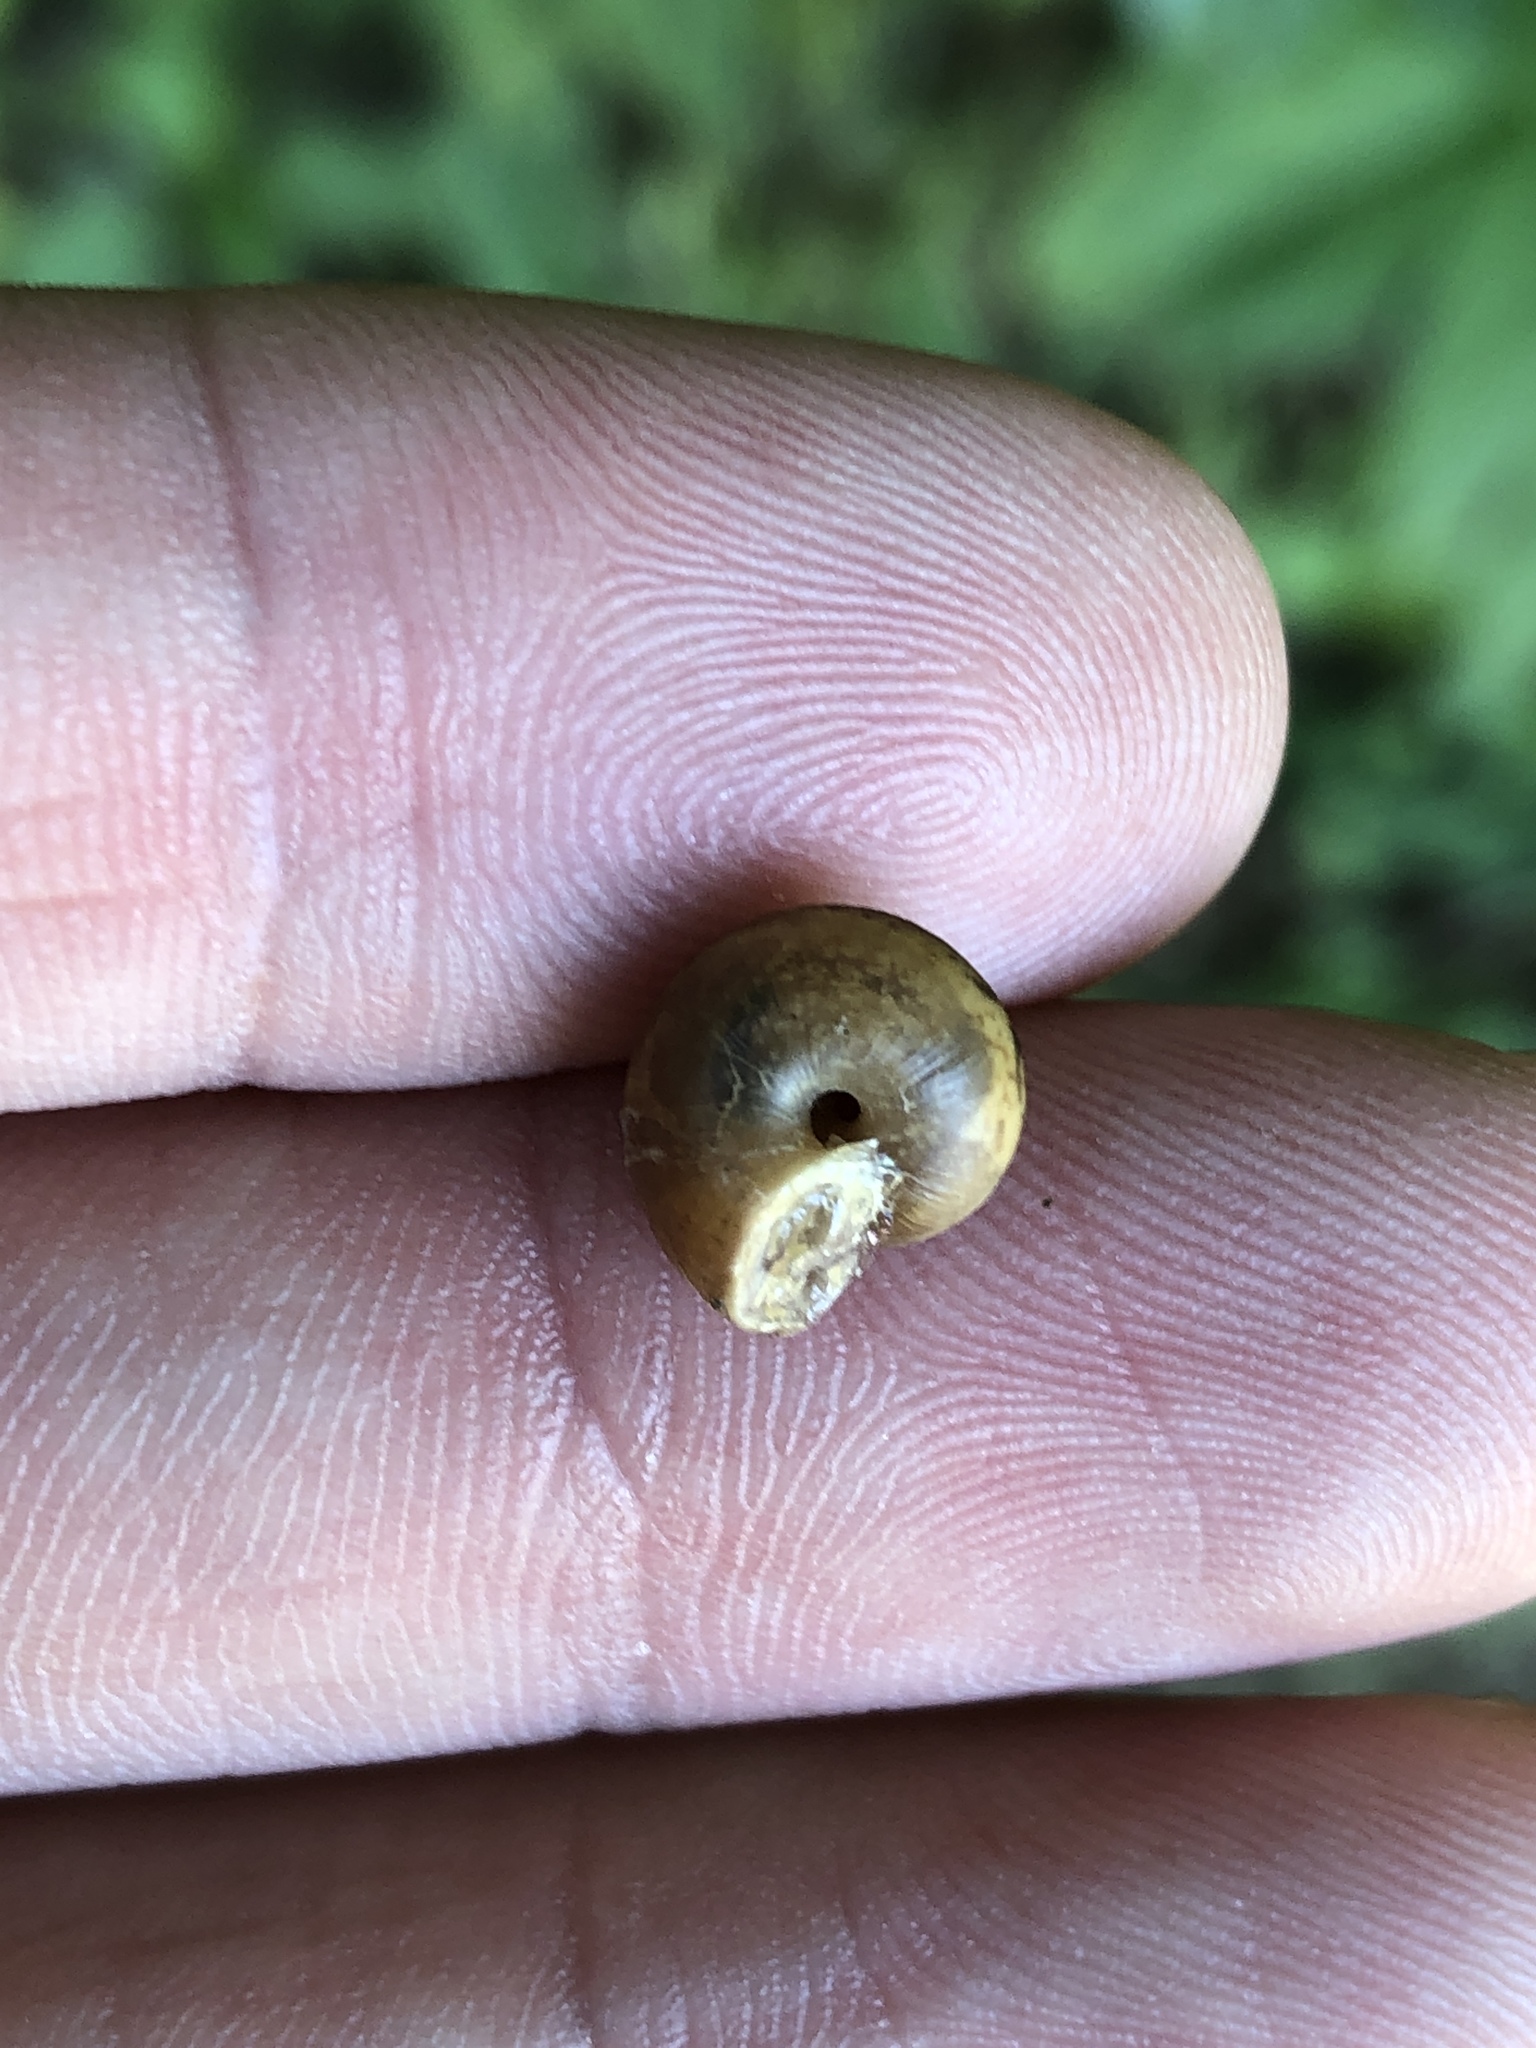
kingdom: Animalia
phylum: Mollusca
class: Gastropoda
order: Stylommatophora
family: Camaenidae
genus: Bradybaena
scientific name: Bradybaena similaris
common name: Asian trampsnail
